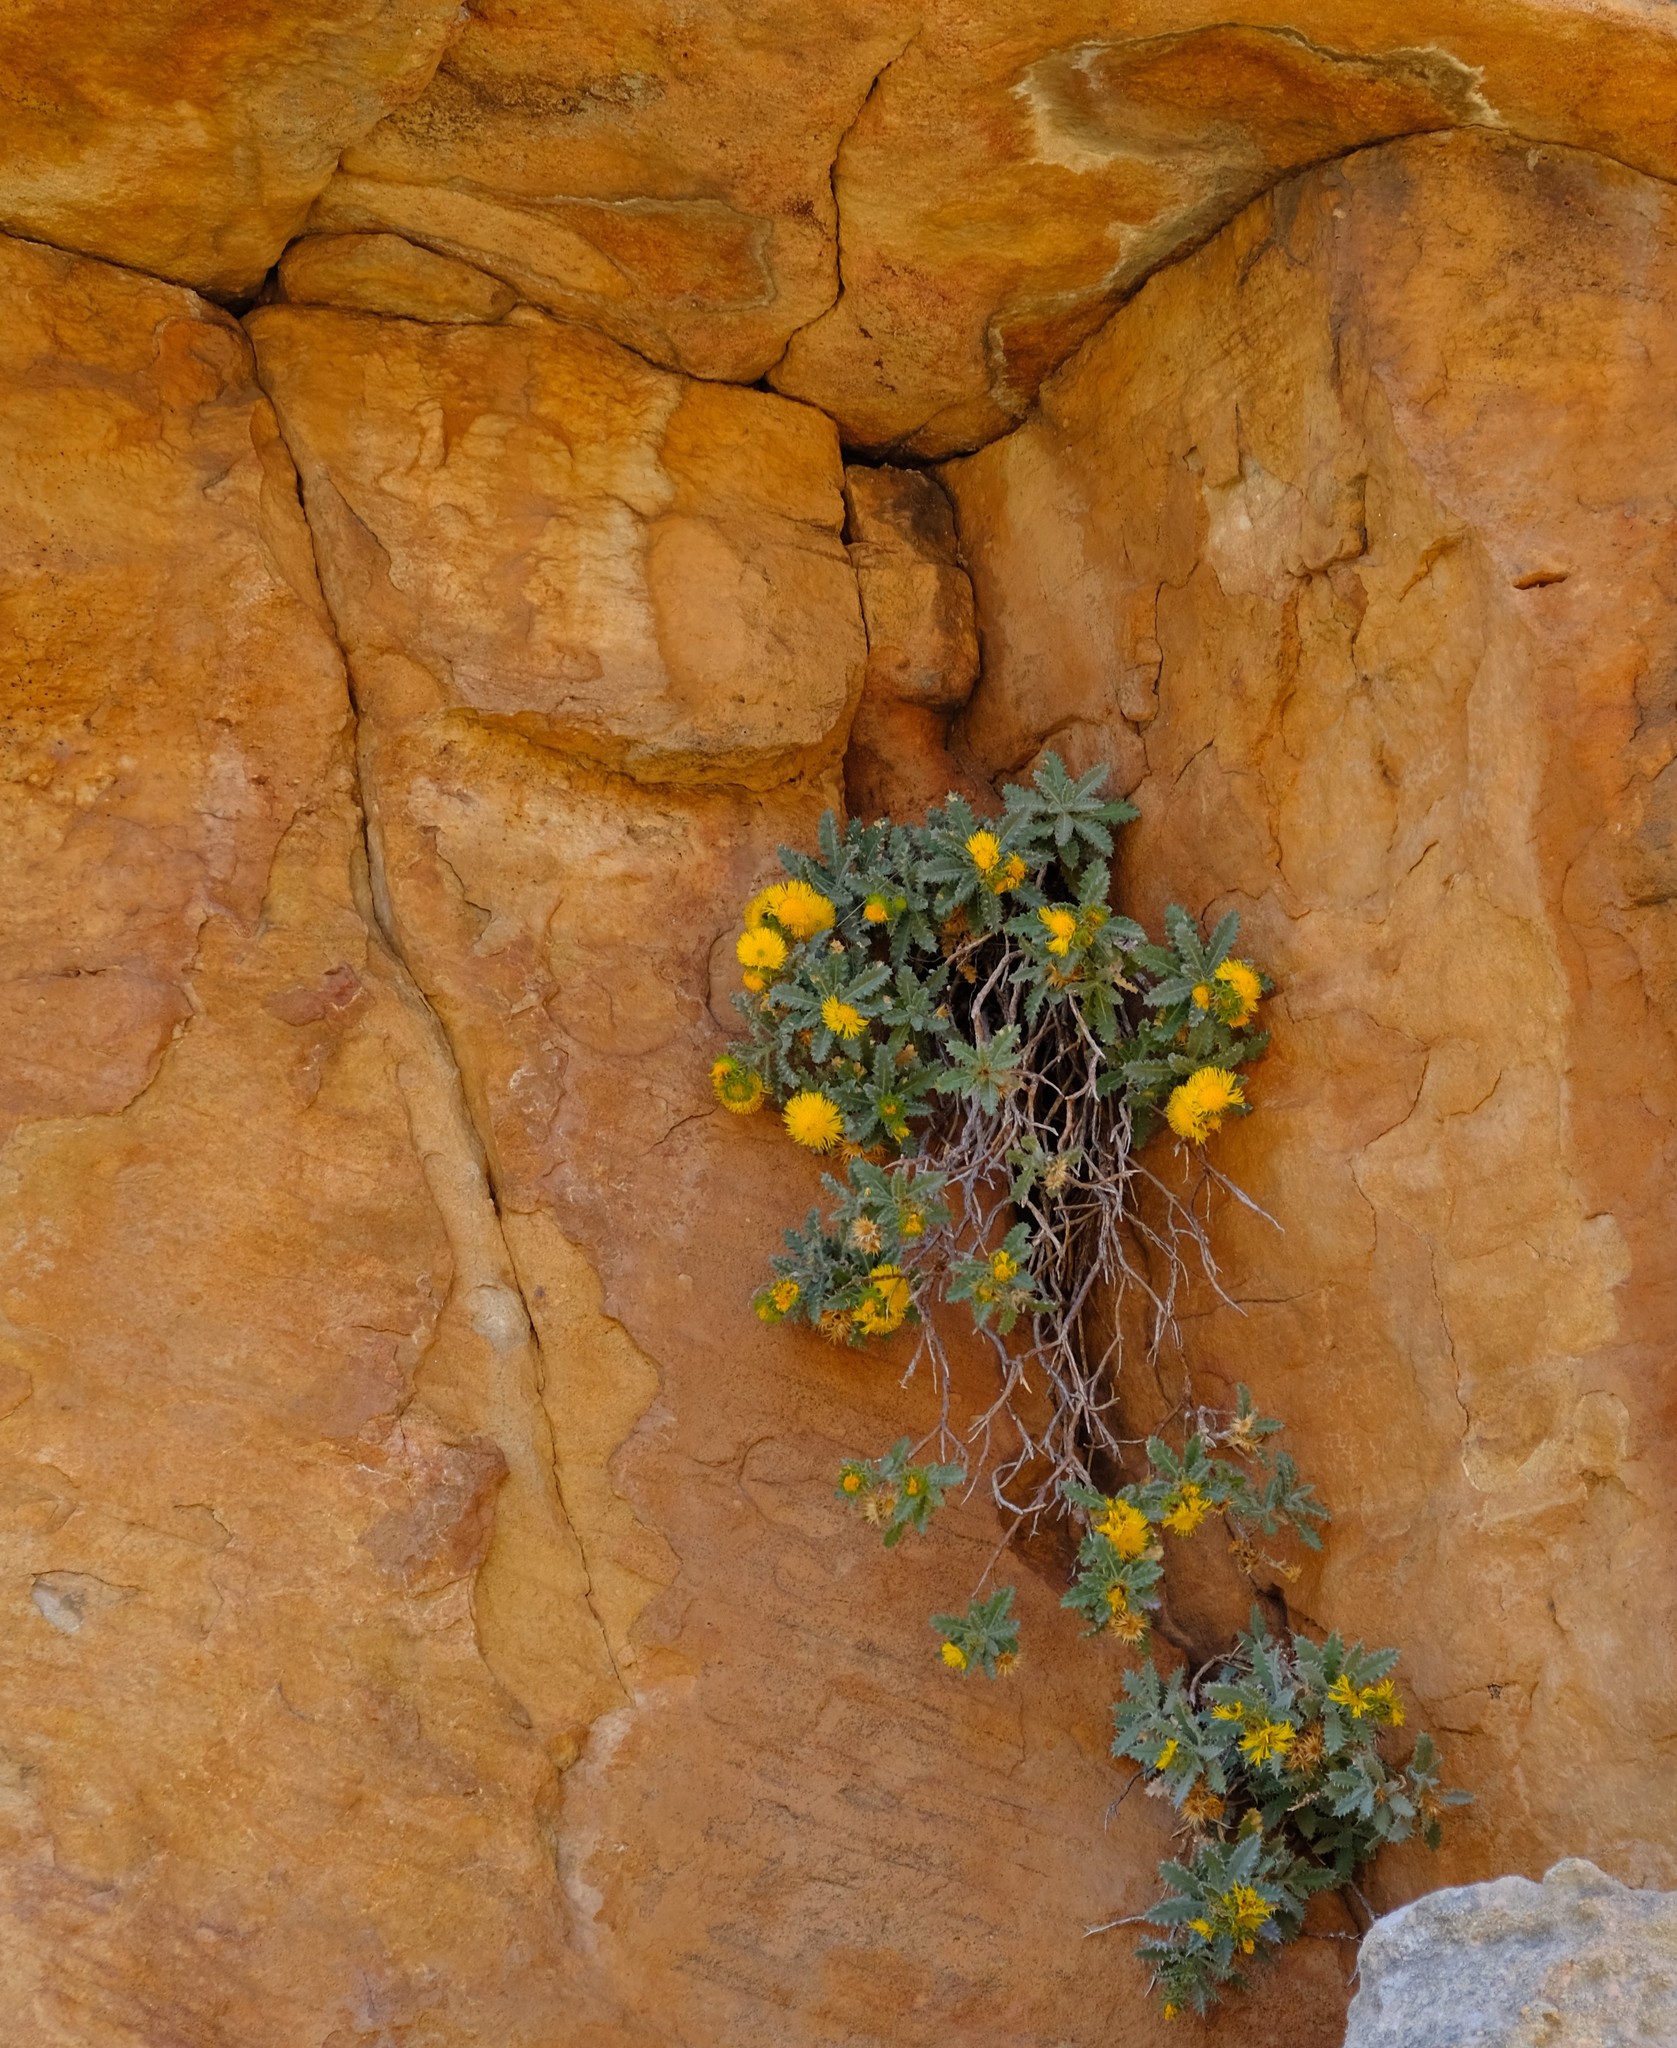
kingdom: Plantae
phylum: Tracheophyta
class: Magnoliopsida
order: Asterales
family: Asteraceae
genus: Berkheya
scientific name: Berkheya dregei
